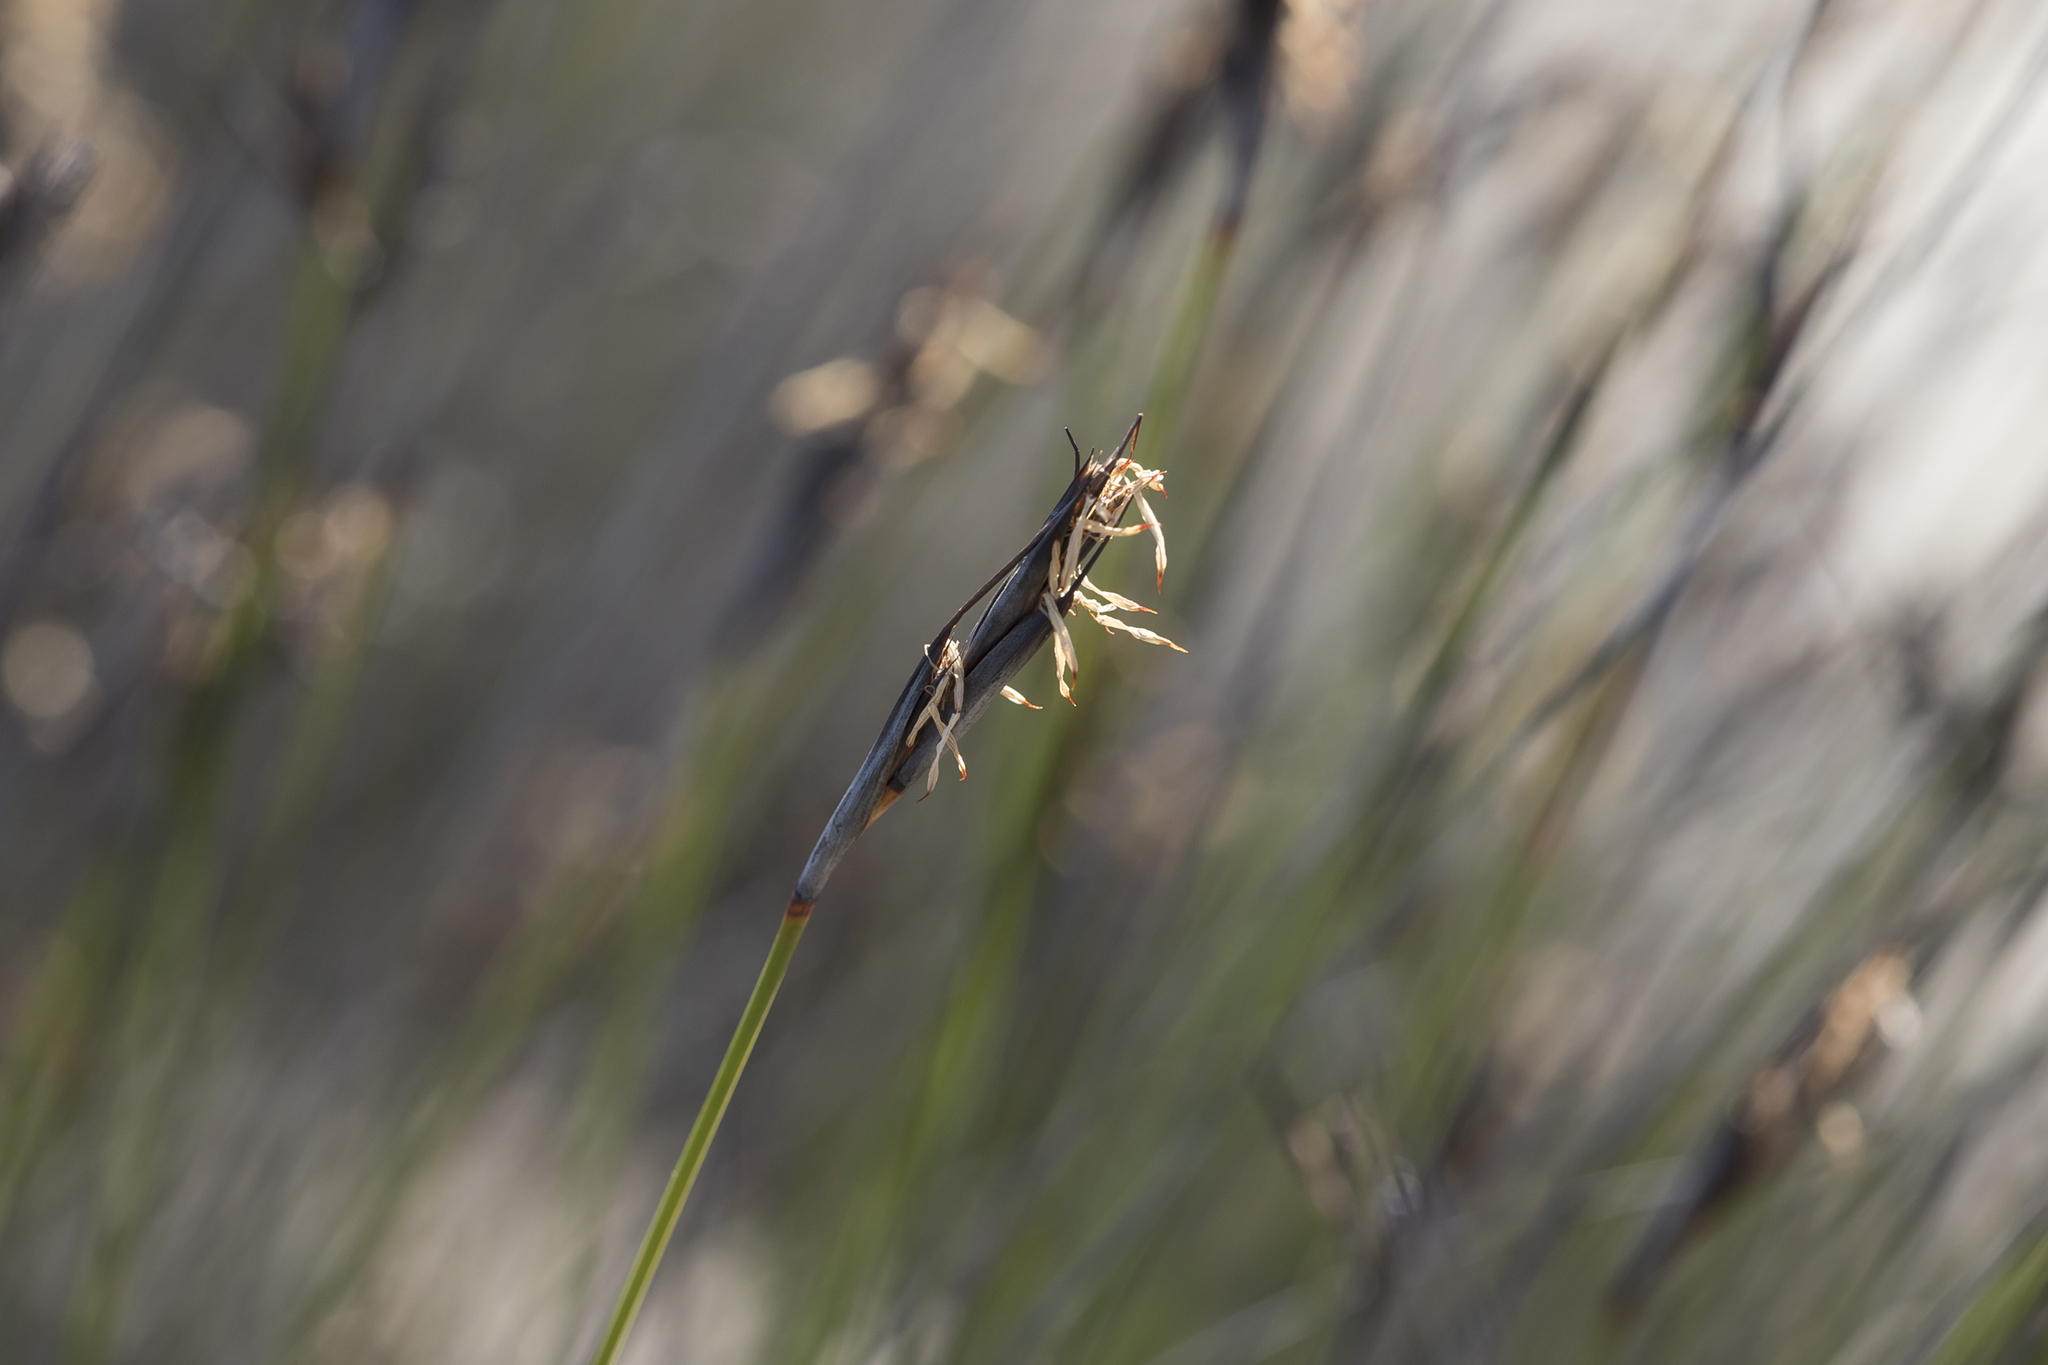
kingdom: Plantae
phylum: Tracheophyta
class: Liliopsida
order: Poales
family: Cyperaceae
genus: Lepidosperma
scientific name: Lepidosperma carphoides
